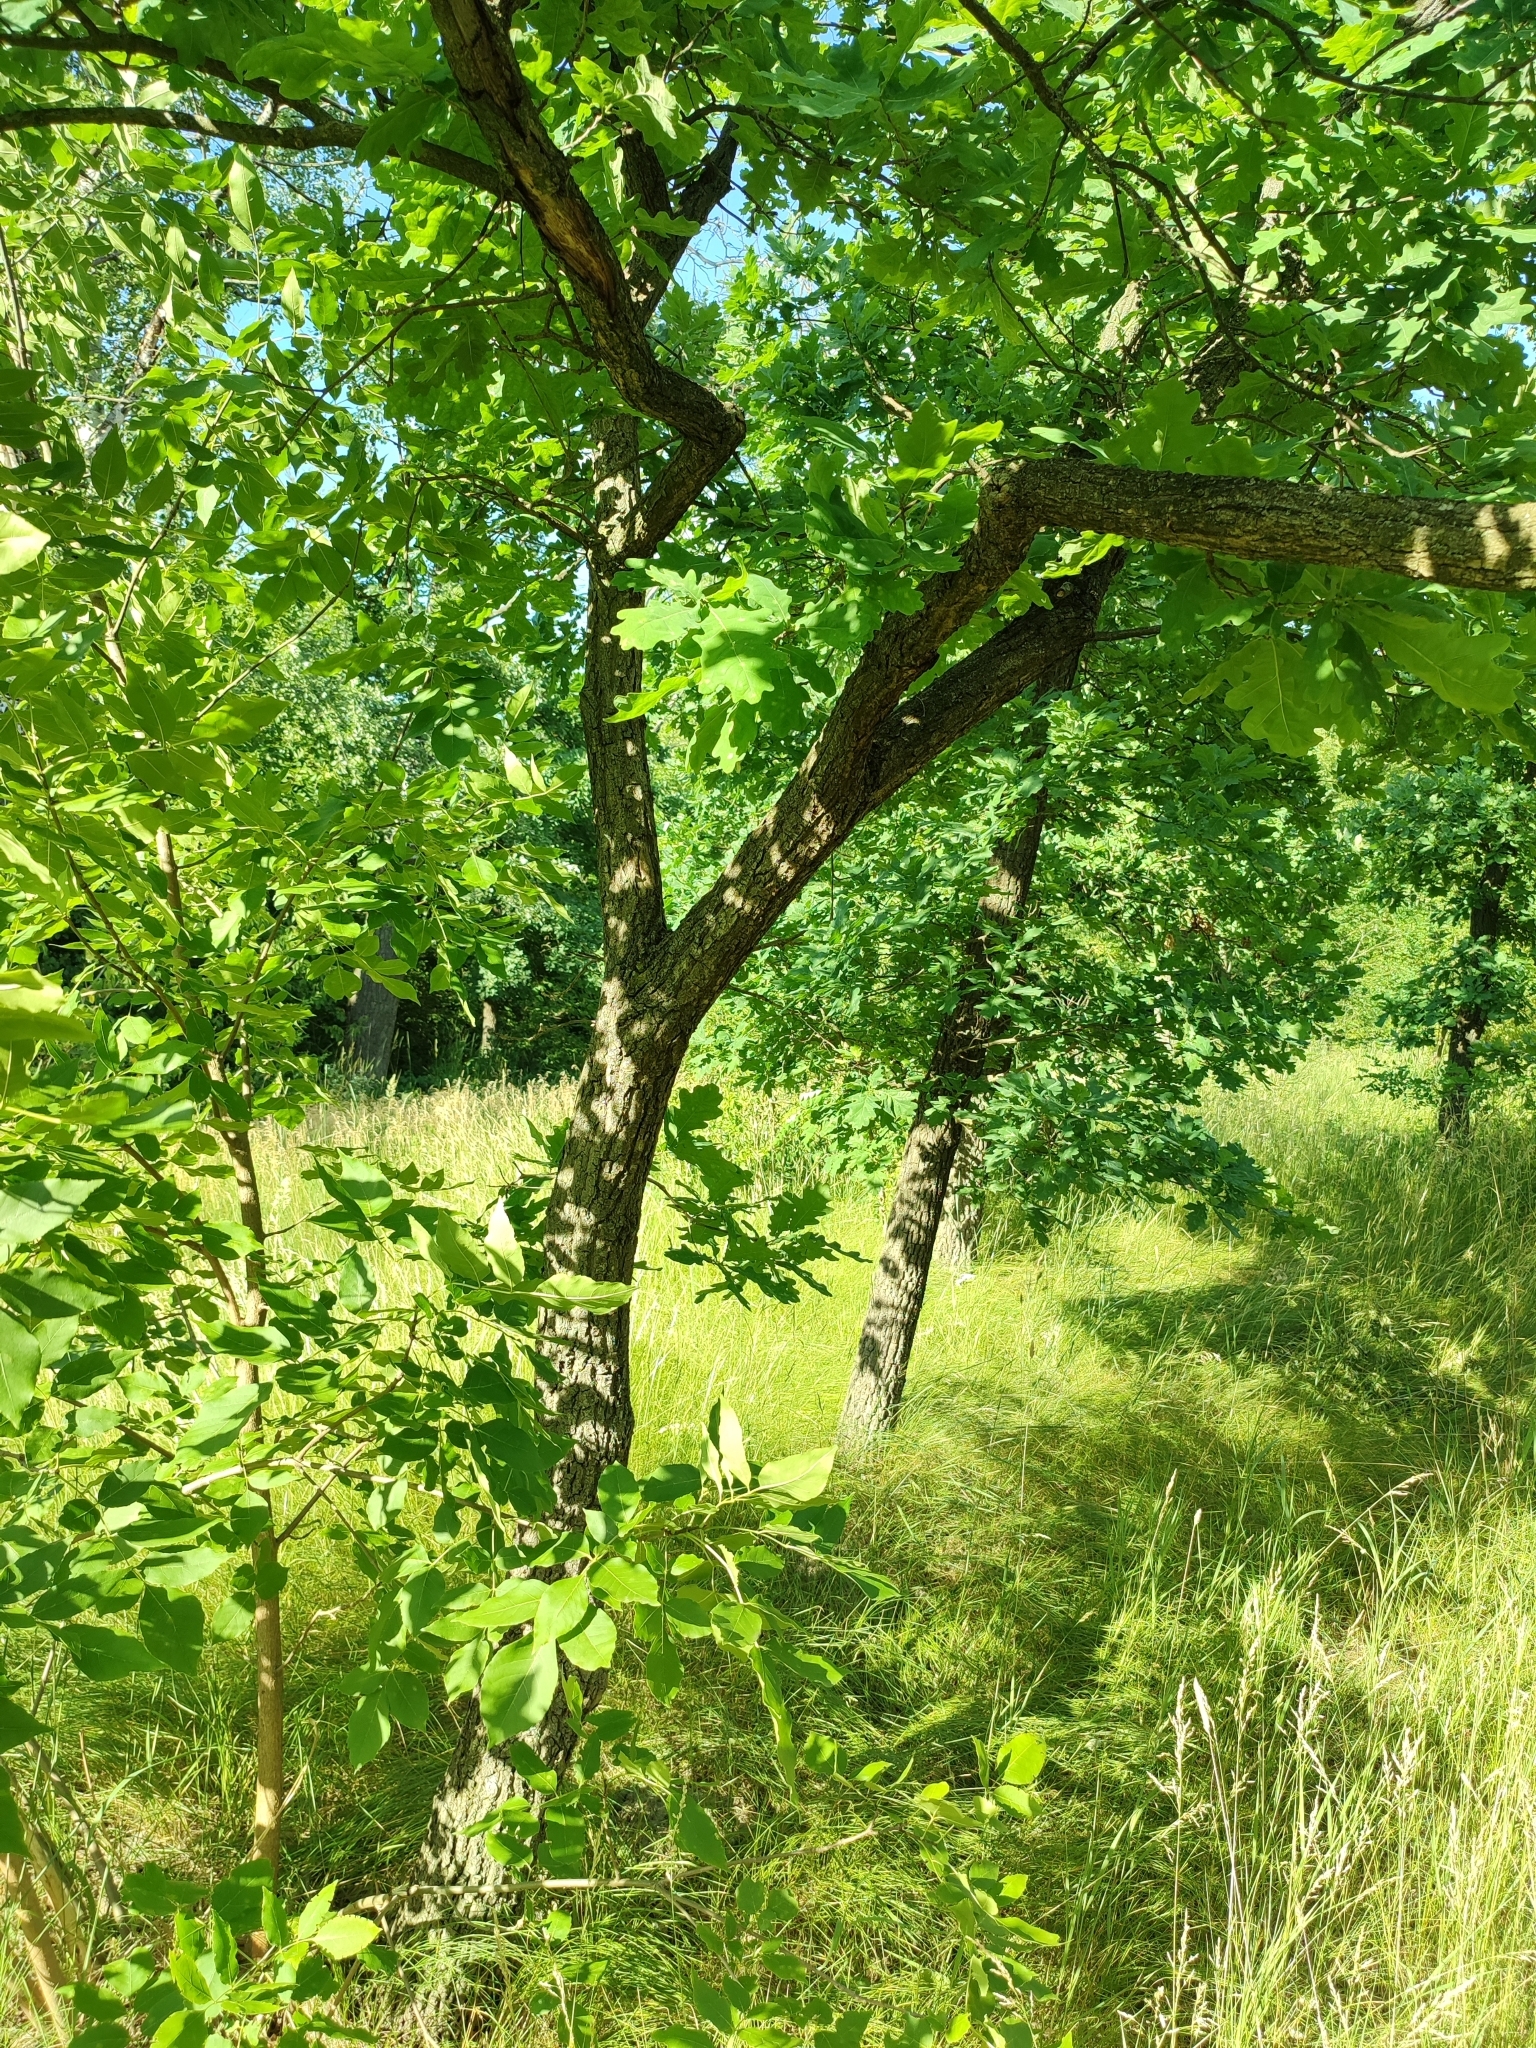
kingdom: Plantae
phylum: Tracheophyta
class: Magnoliopsida
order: Fagales
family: Fagaceae
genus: Quercus
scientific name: Quercus robur
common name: Pedunculate oak
